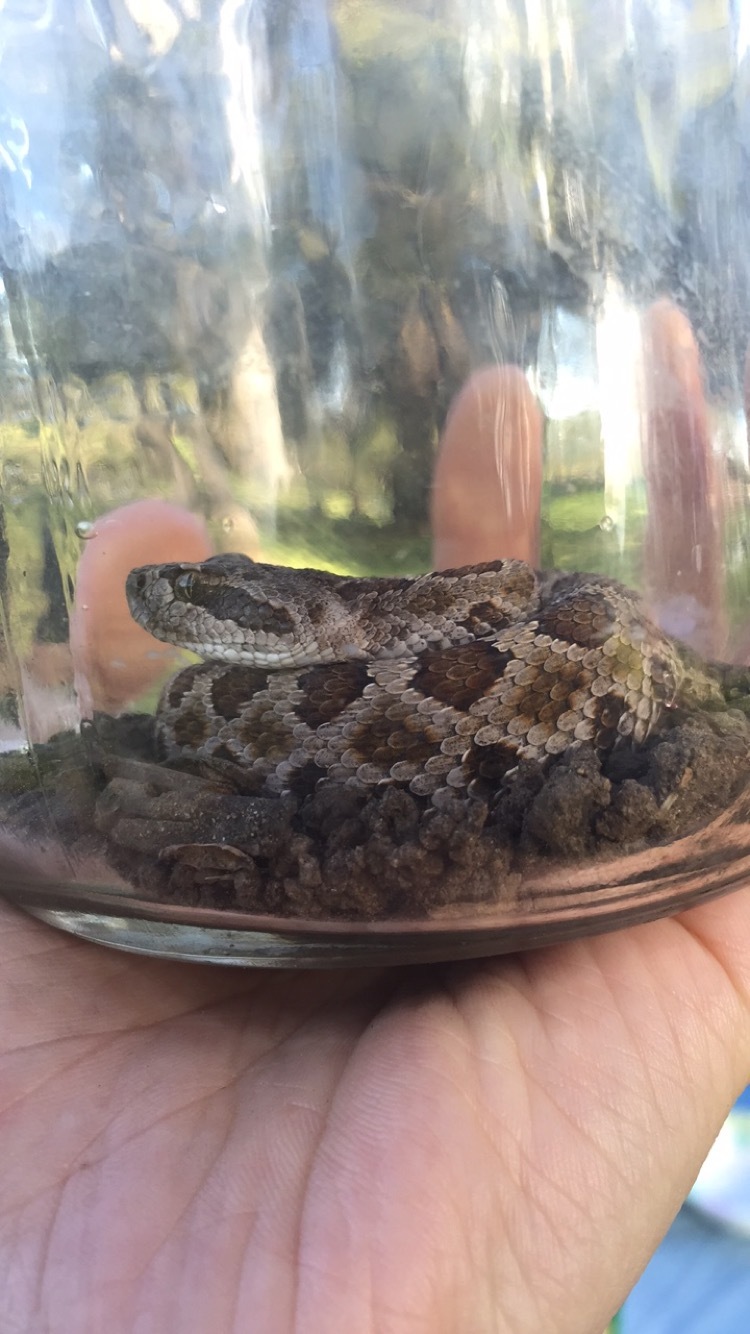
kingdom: Animalia
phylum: Chordata
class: Squamata
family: Viperidae
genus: Crotalus
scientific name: Crotalus oreganus
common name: Abyssus
